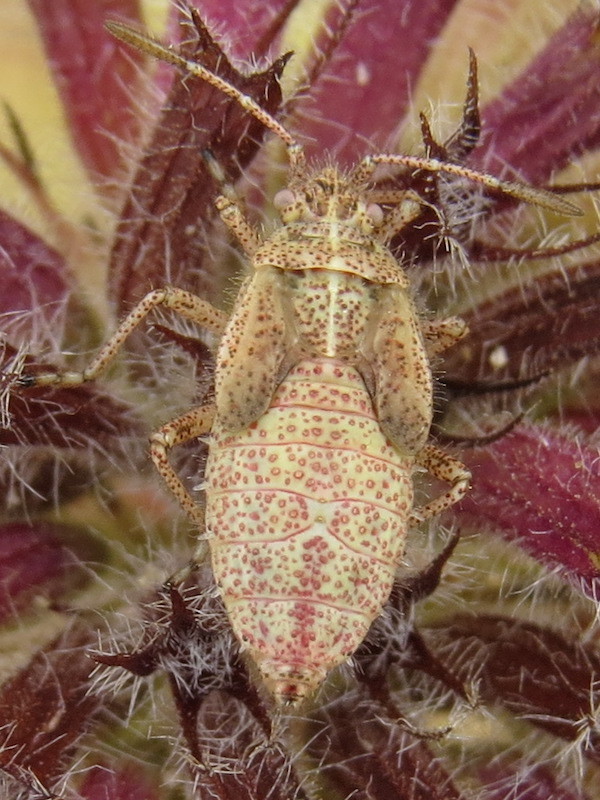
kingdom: Animalia
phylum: Arthropoda
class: Insecta
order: Hemiptera
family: Rhopalidae
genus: Corizus
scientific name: Corizus hyoscyami
